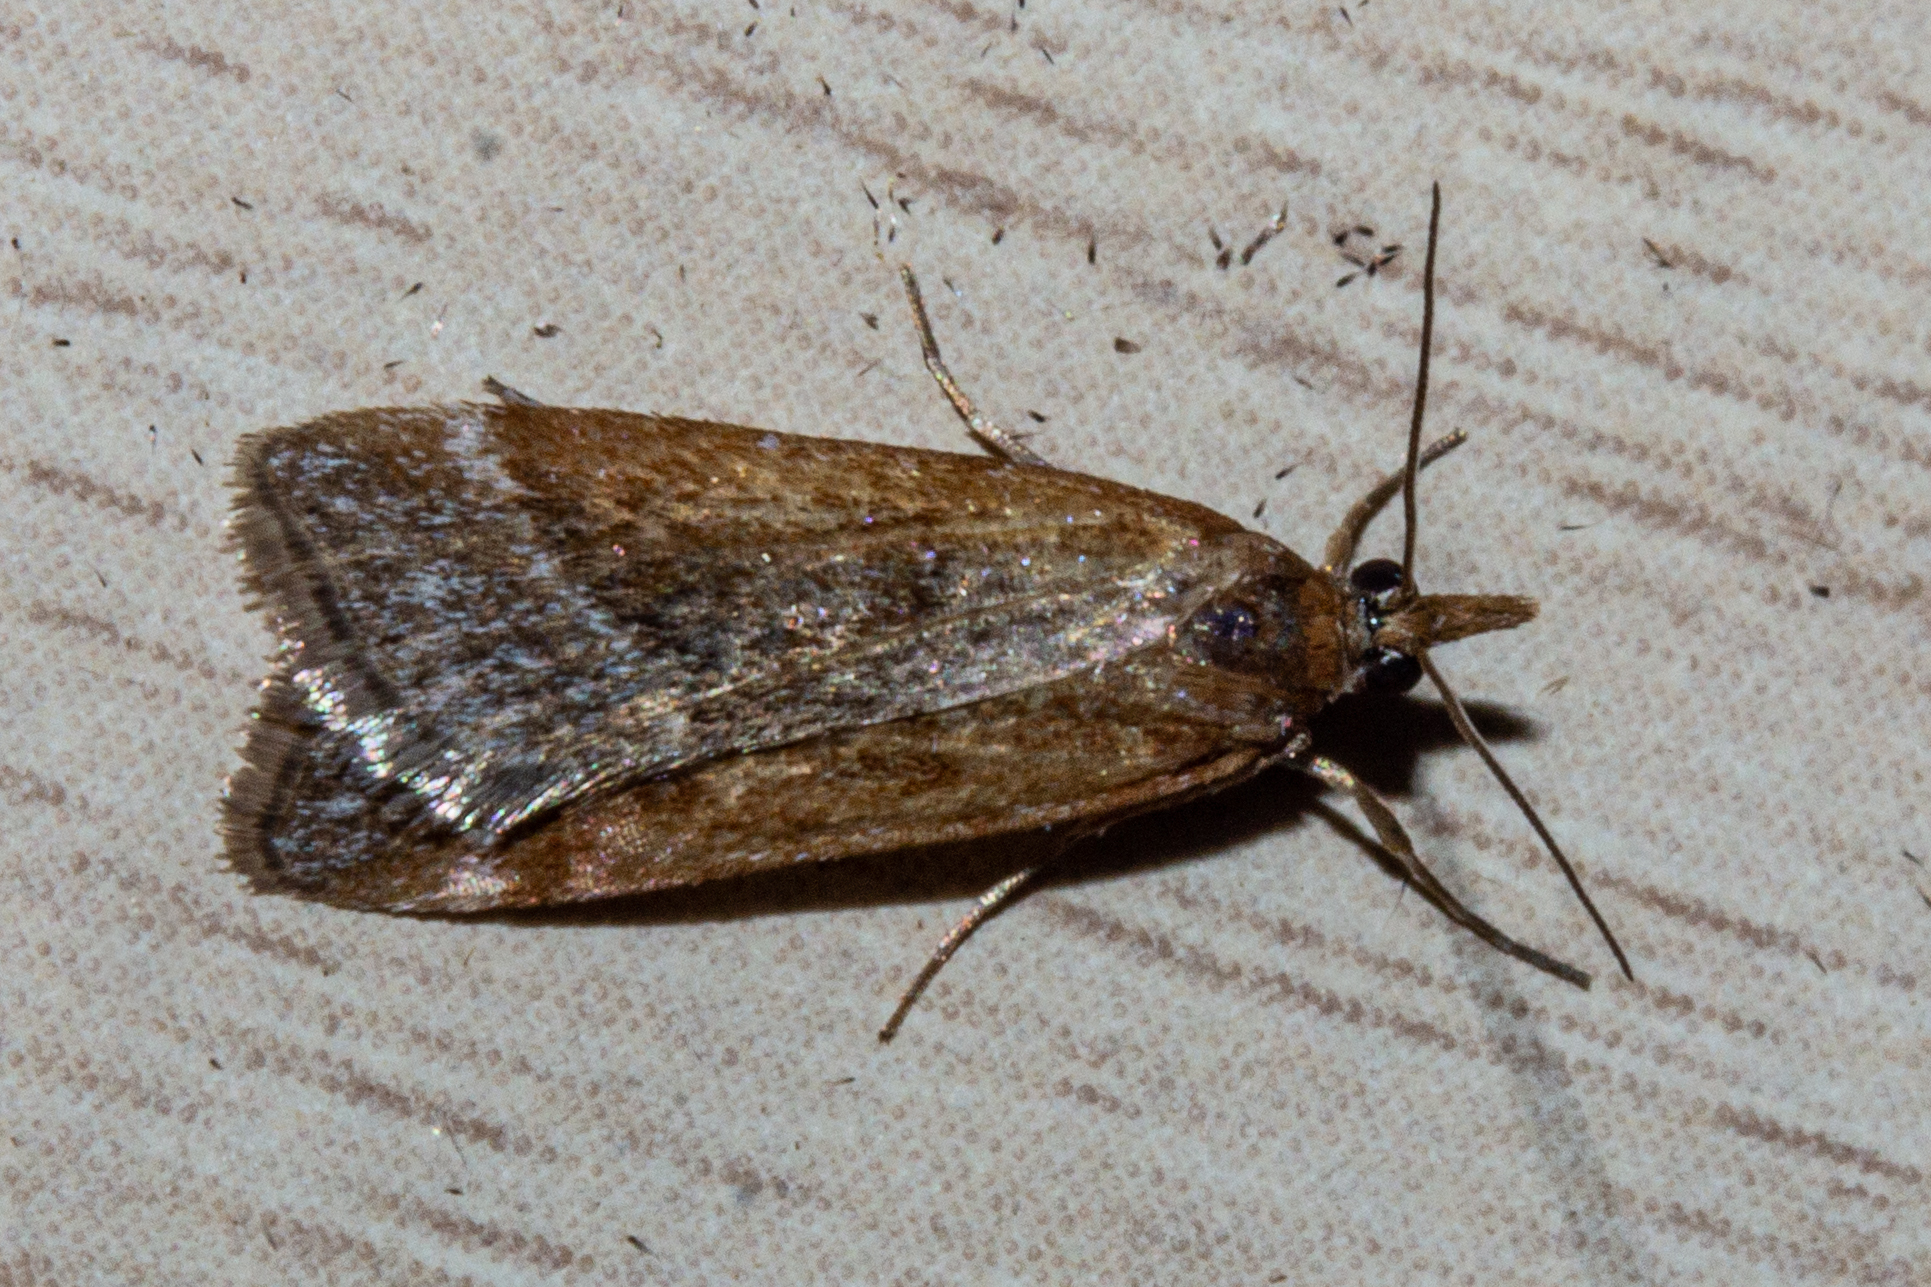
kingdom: Animalia
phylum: Arthropoda
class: Insecta
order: Lepidoptera
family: Crambidae
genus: Eudonia
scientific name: Eudonia feredayi
